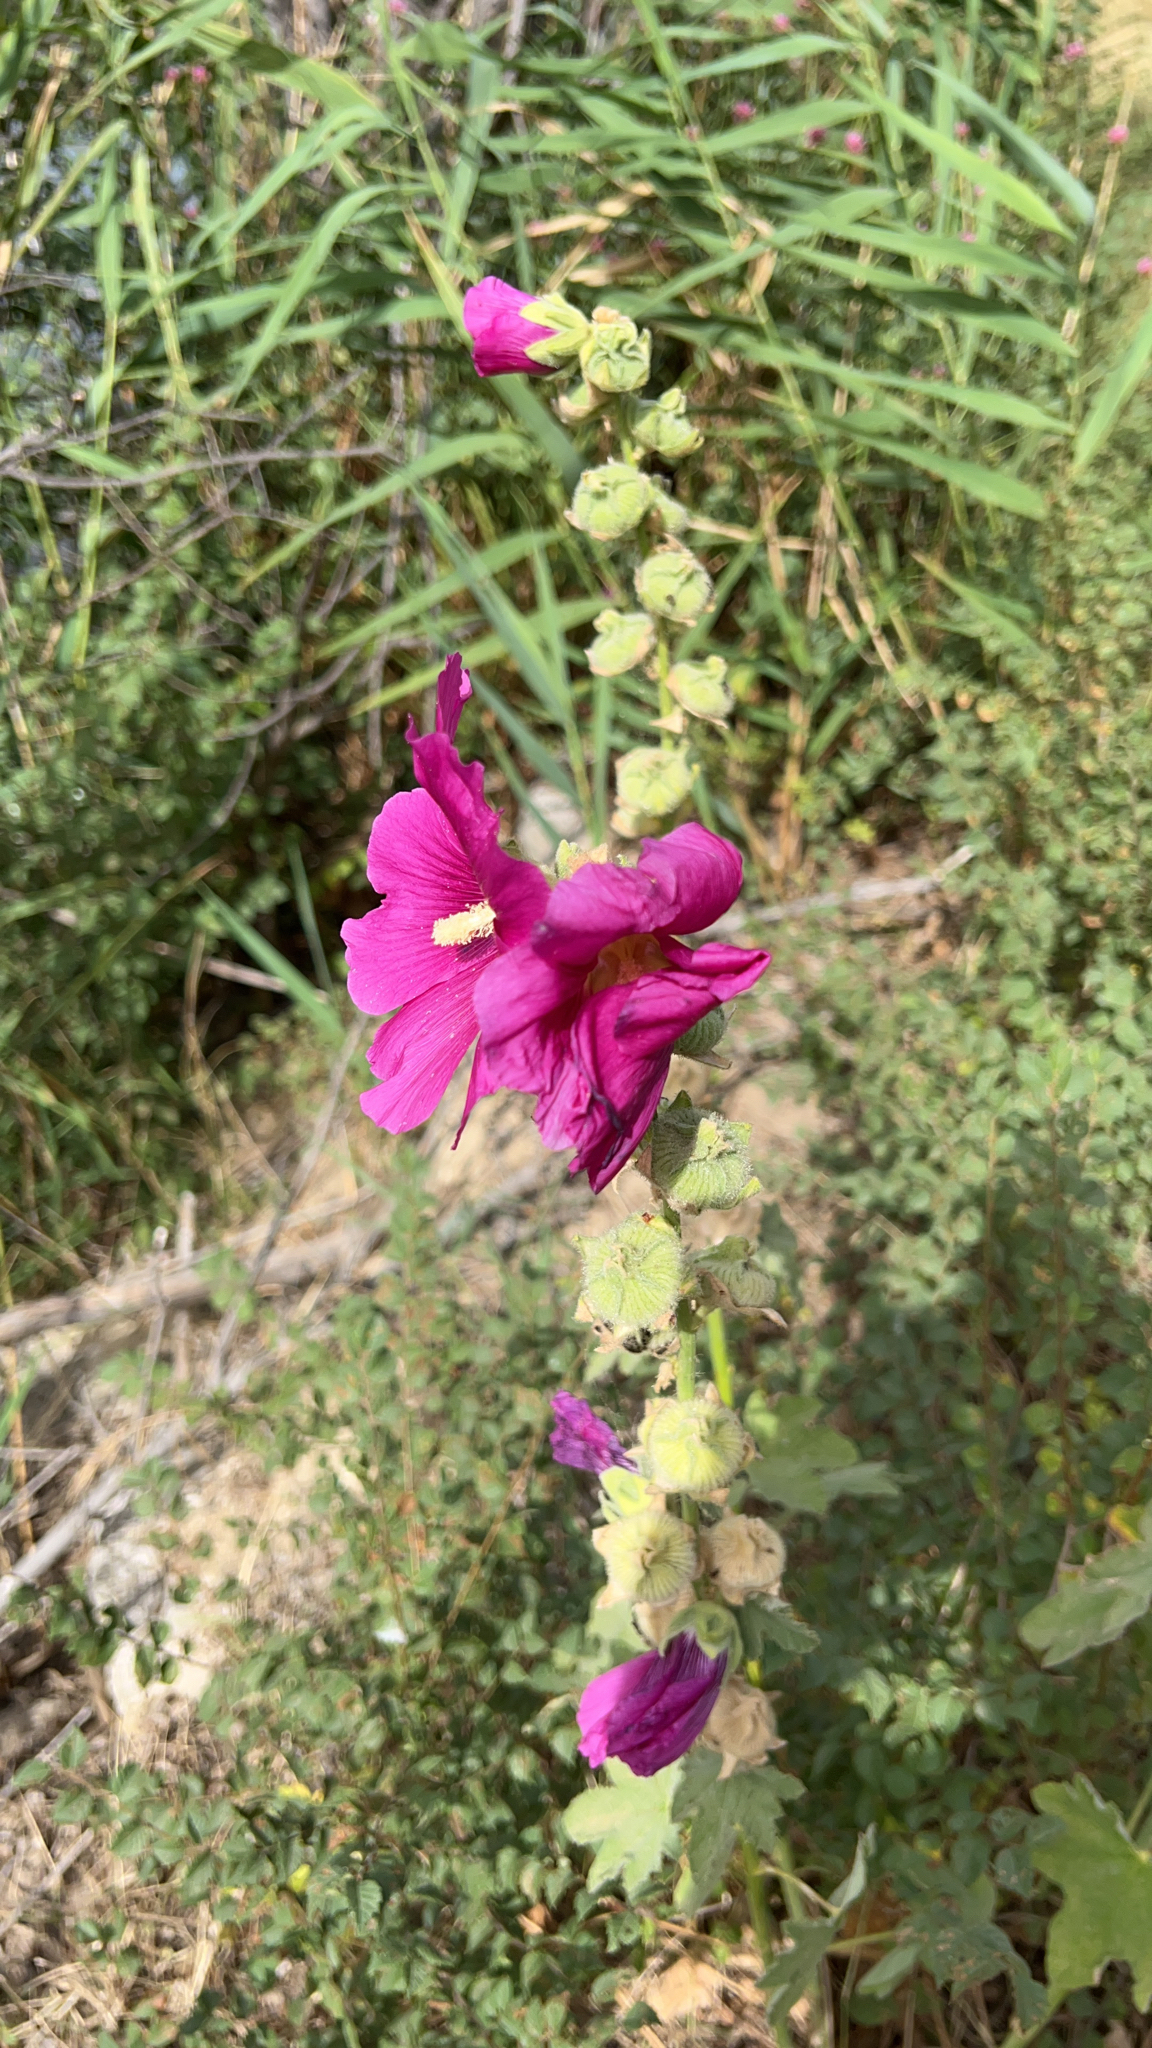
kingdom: Plantae
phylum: Tracheophyta
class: Magnoliopsida
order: Malvales
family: Malvaceae
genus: Alcea
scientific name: Alcea rosea
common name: Hollyhock
